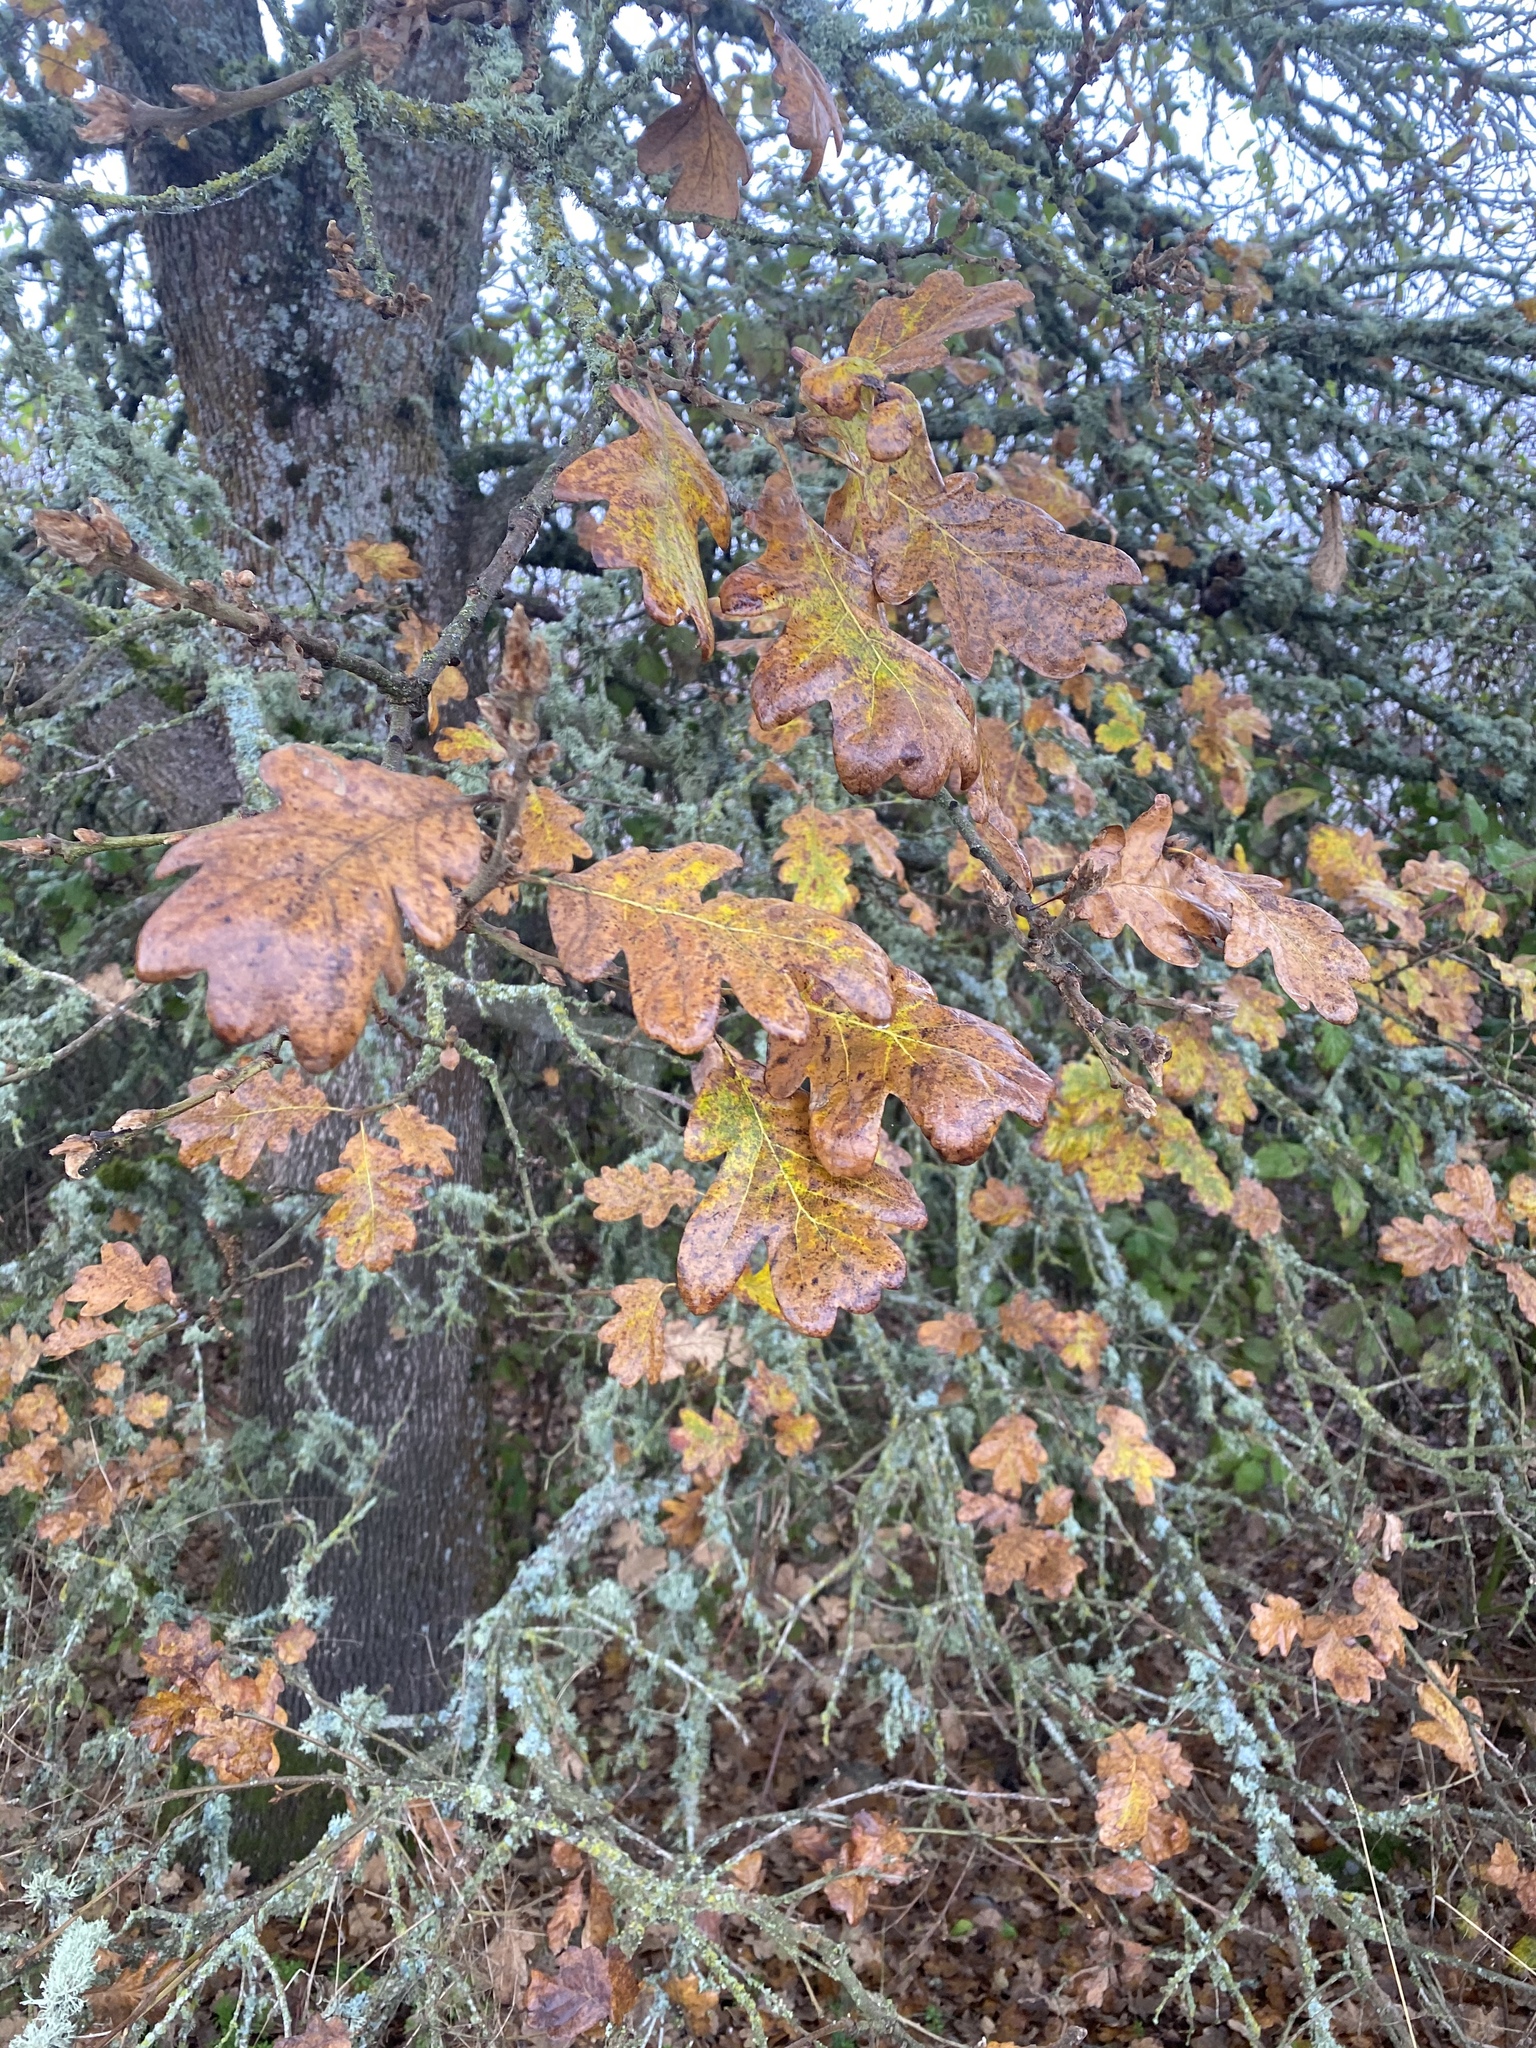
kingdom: Plantae
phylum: Tracheophyta
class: Magnoliopsida
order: Fagales
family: Fagaceae
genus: Quercus
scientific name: Quercus garryana
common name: Garry oak
